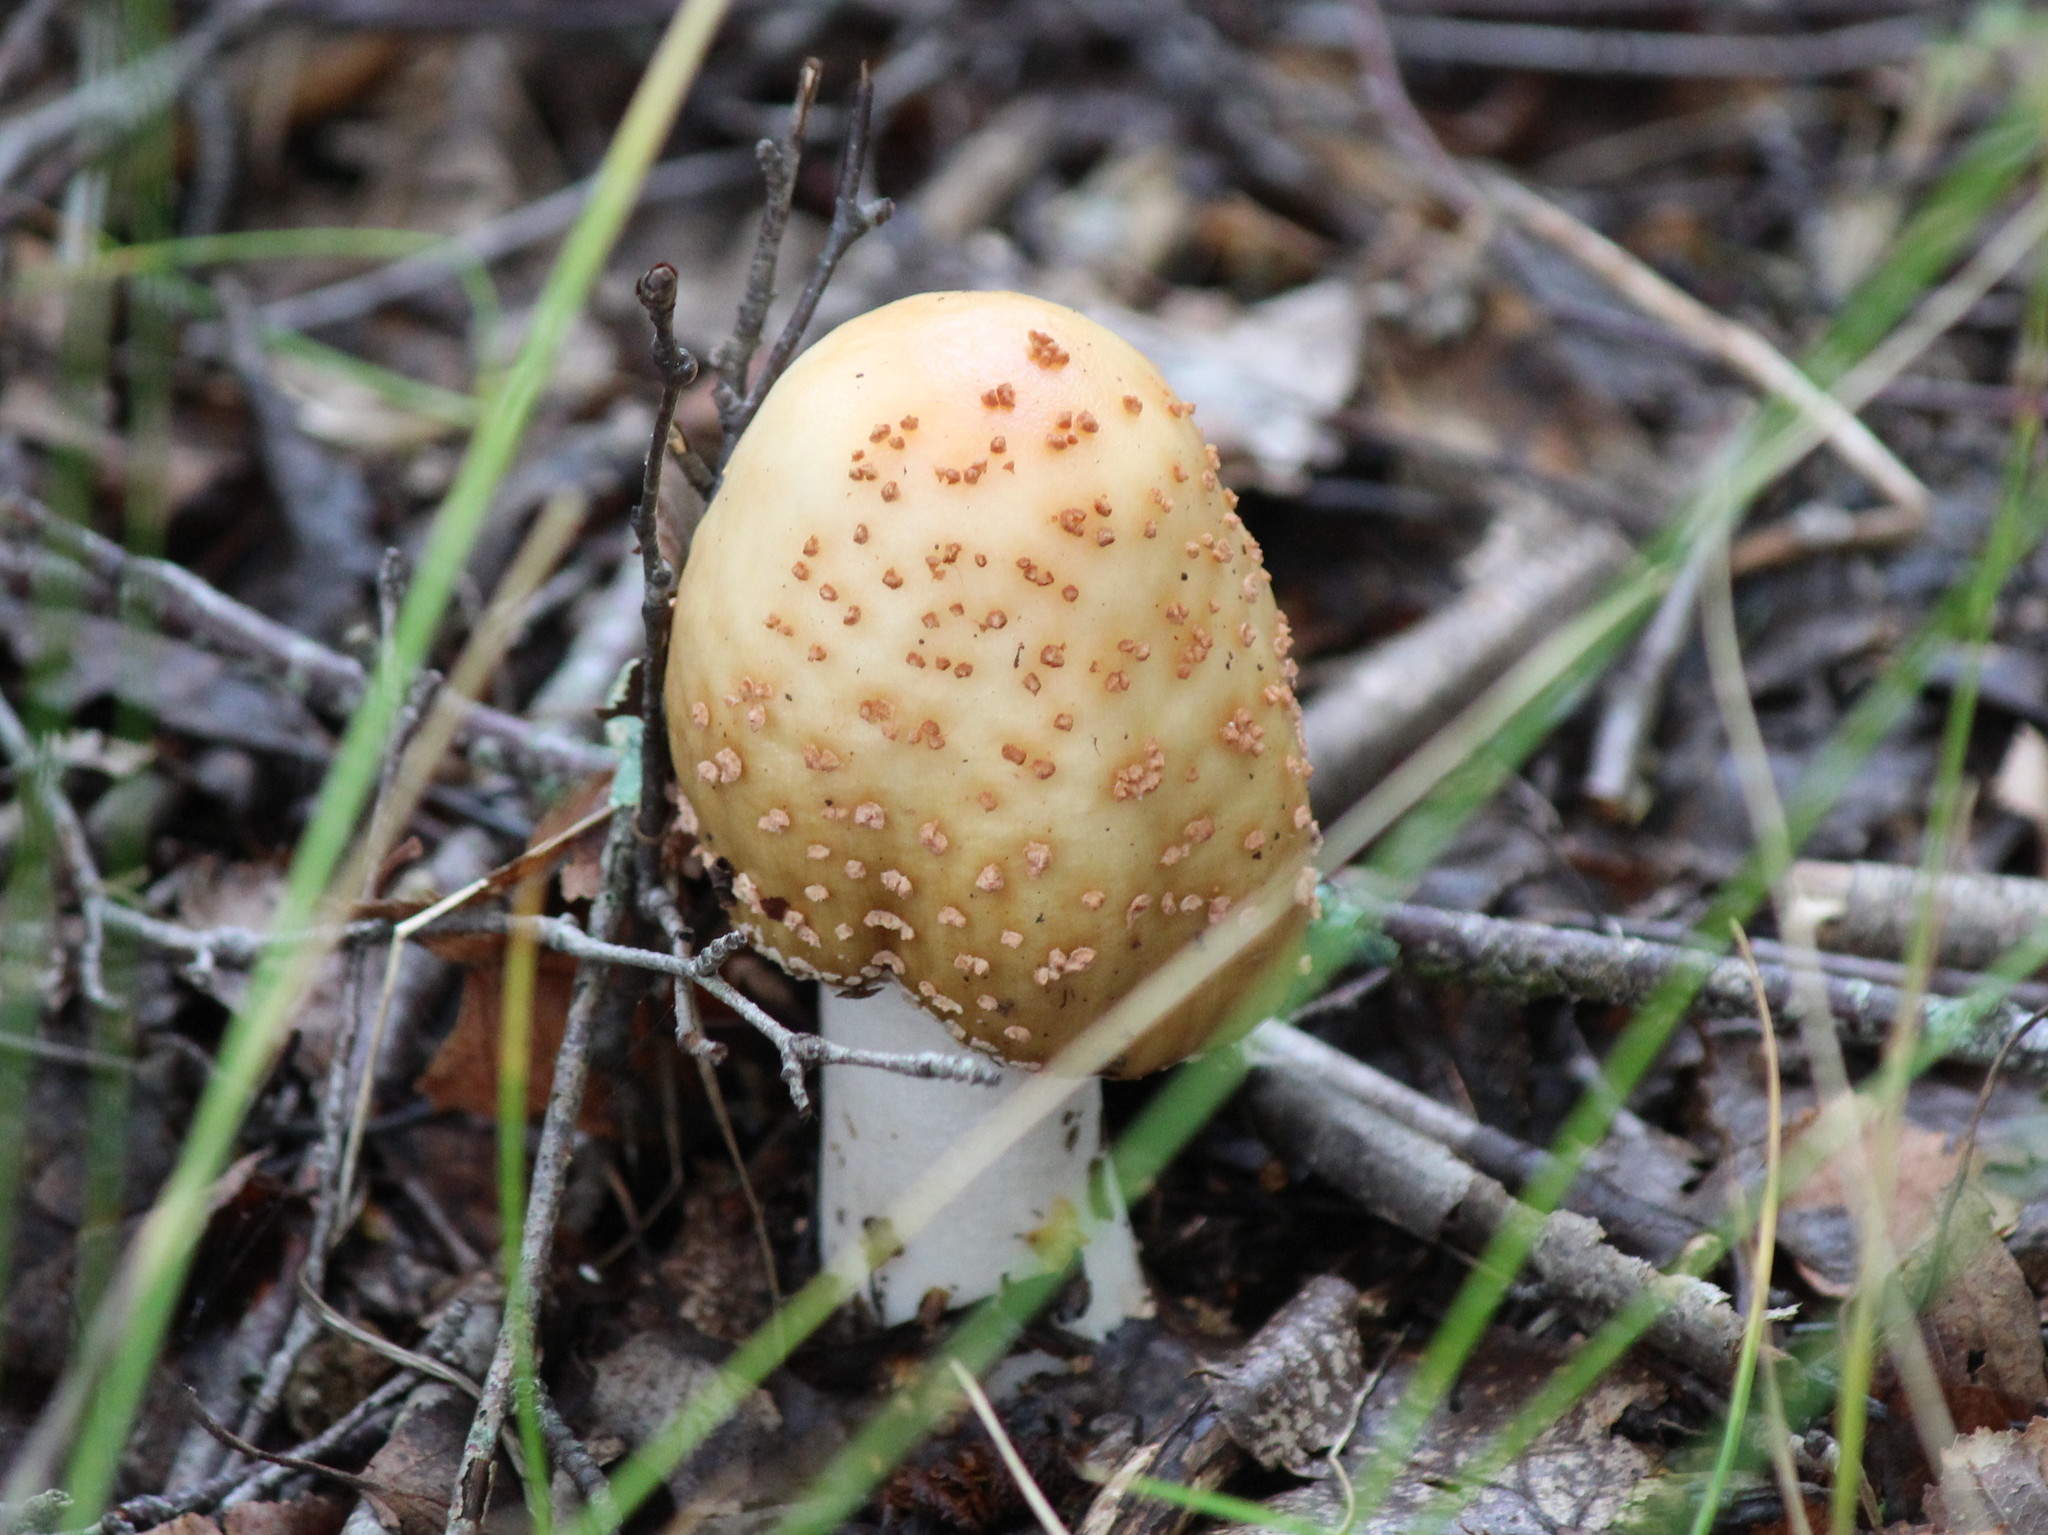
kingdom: Fungi
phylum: Basidiomycota
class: Agaricomycetes
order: Agaricales
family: Amanitaceae
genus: Amanita
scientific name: Amanita rubescens
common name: Blusher
